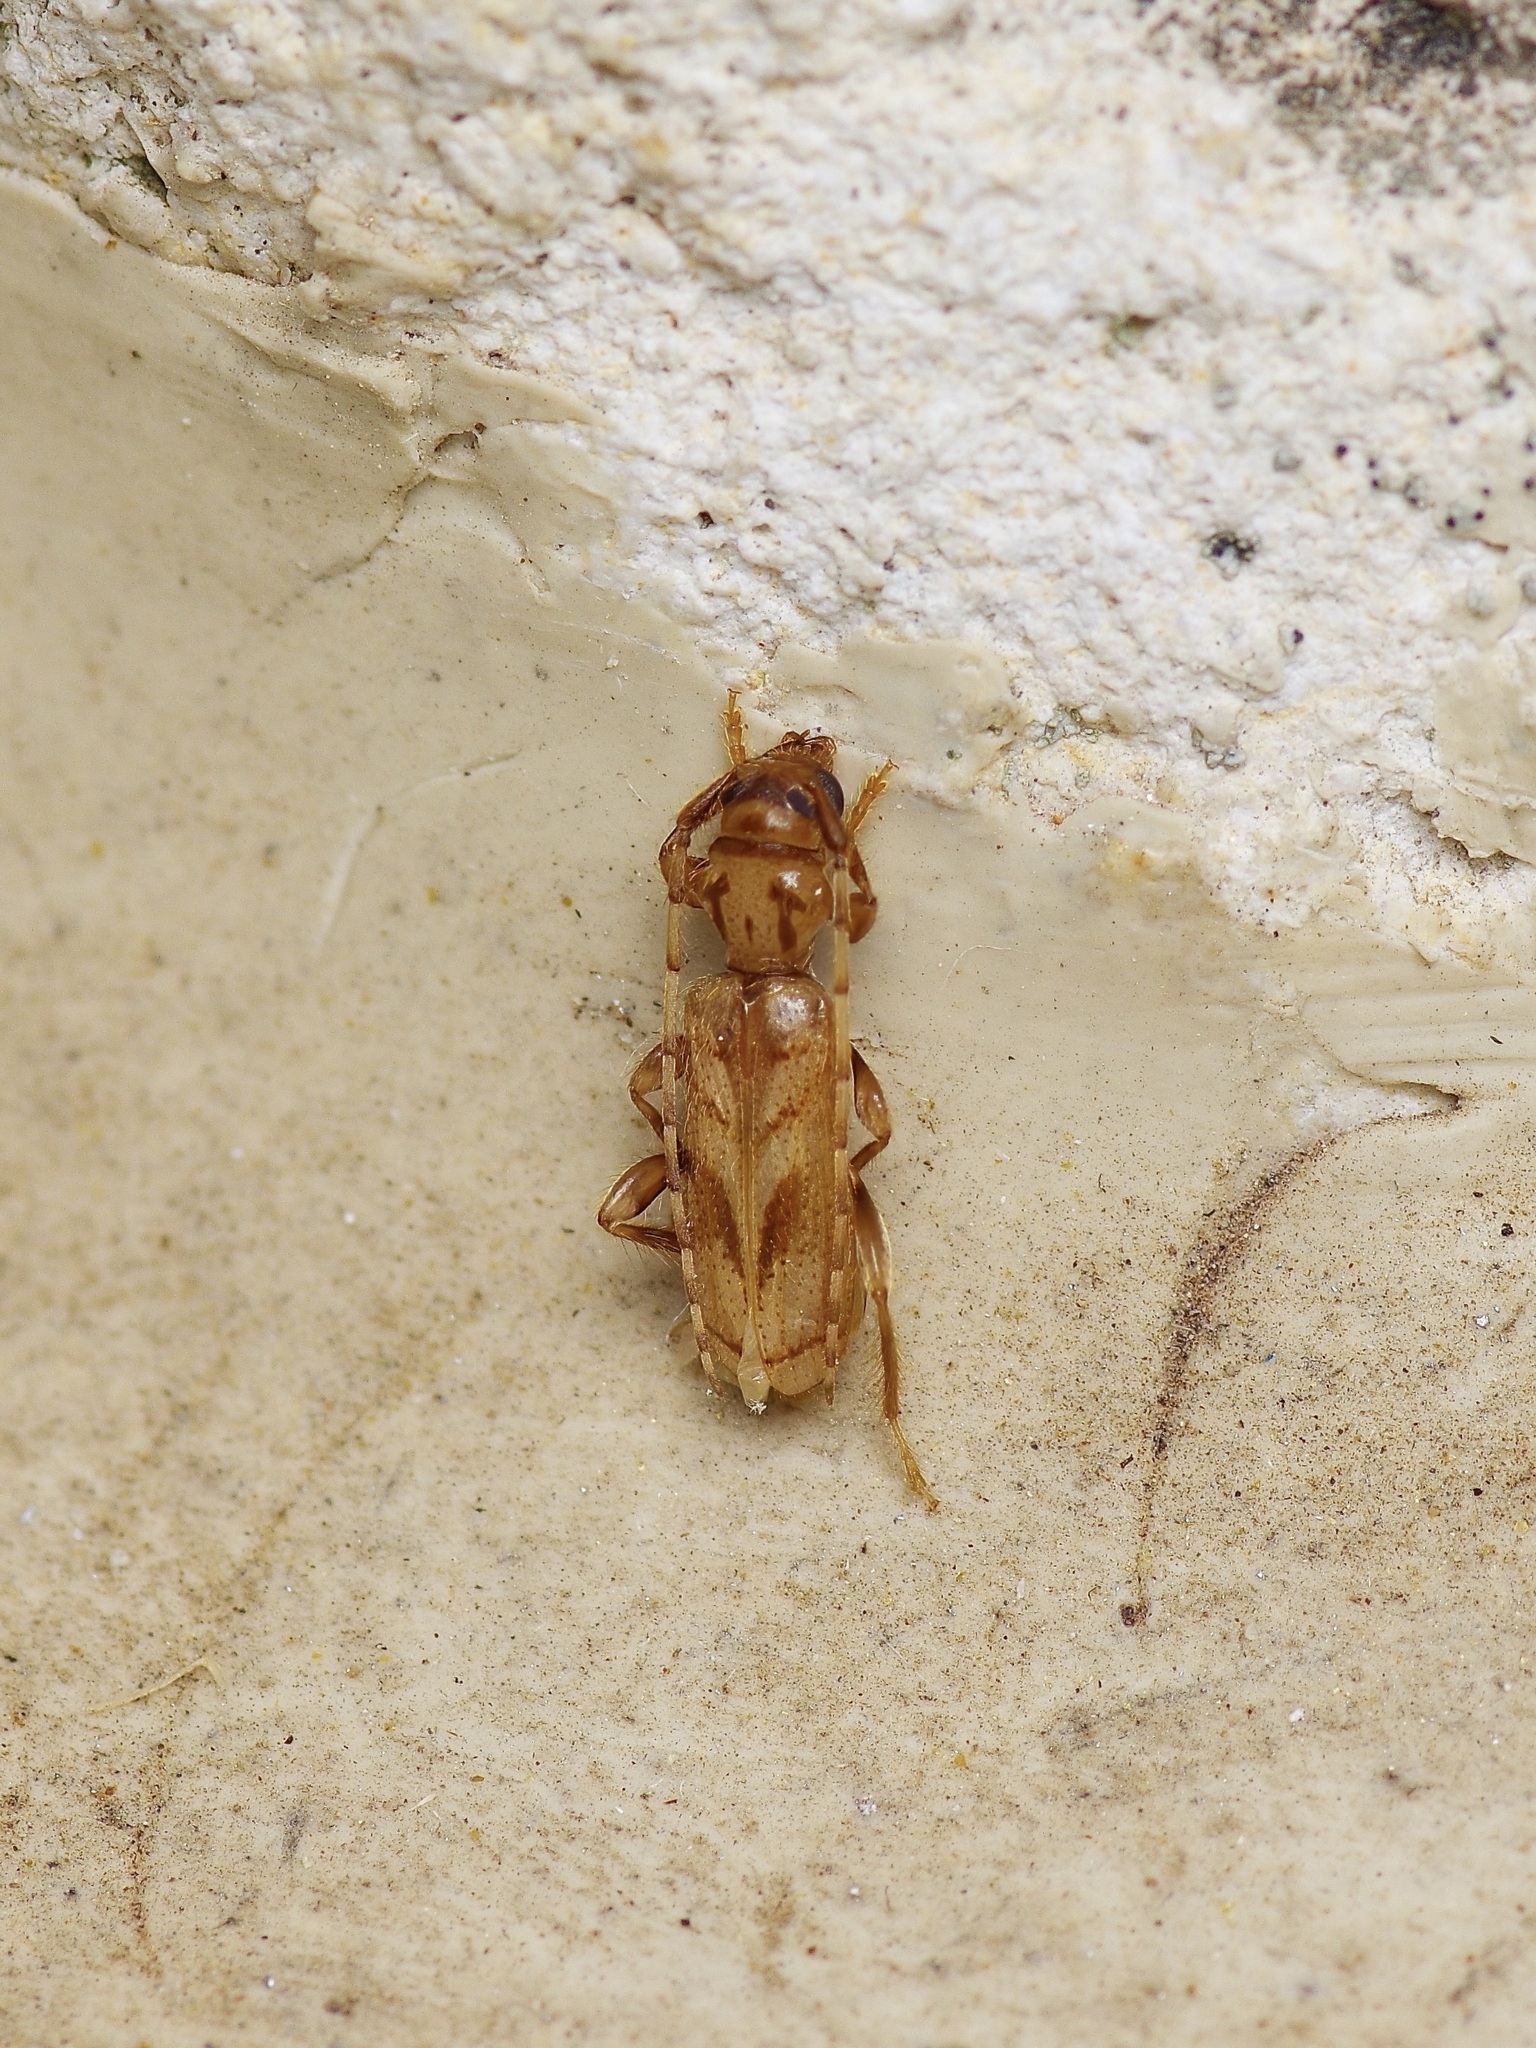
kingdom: Animalia
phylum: Arthropoda
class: Insecta
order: Coleoptera
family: Cerambycidae
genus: Obrium
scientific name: Obrium maculatum
